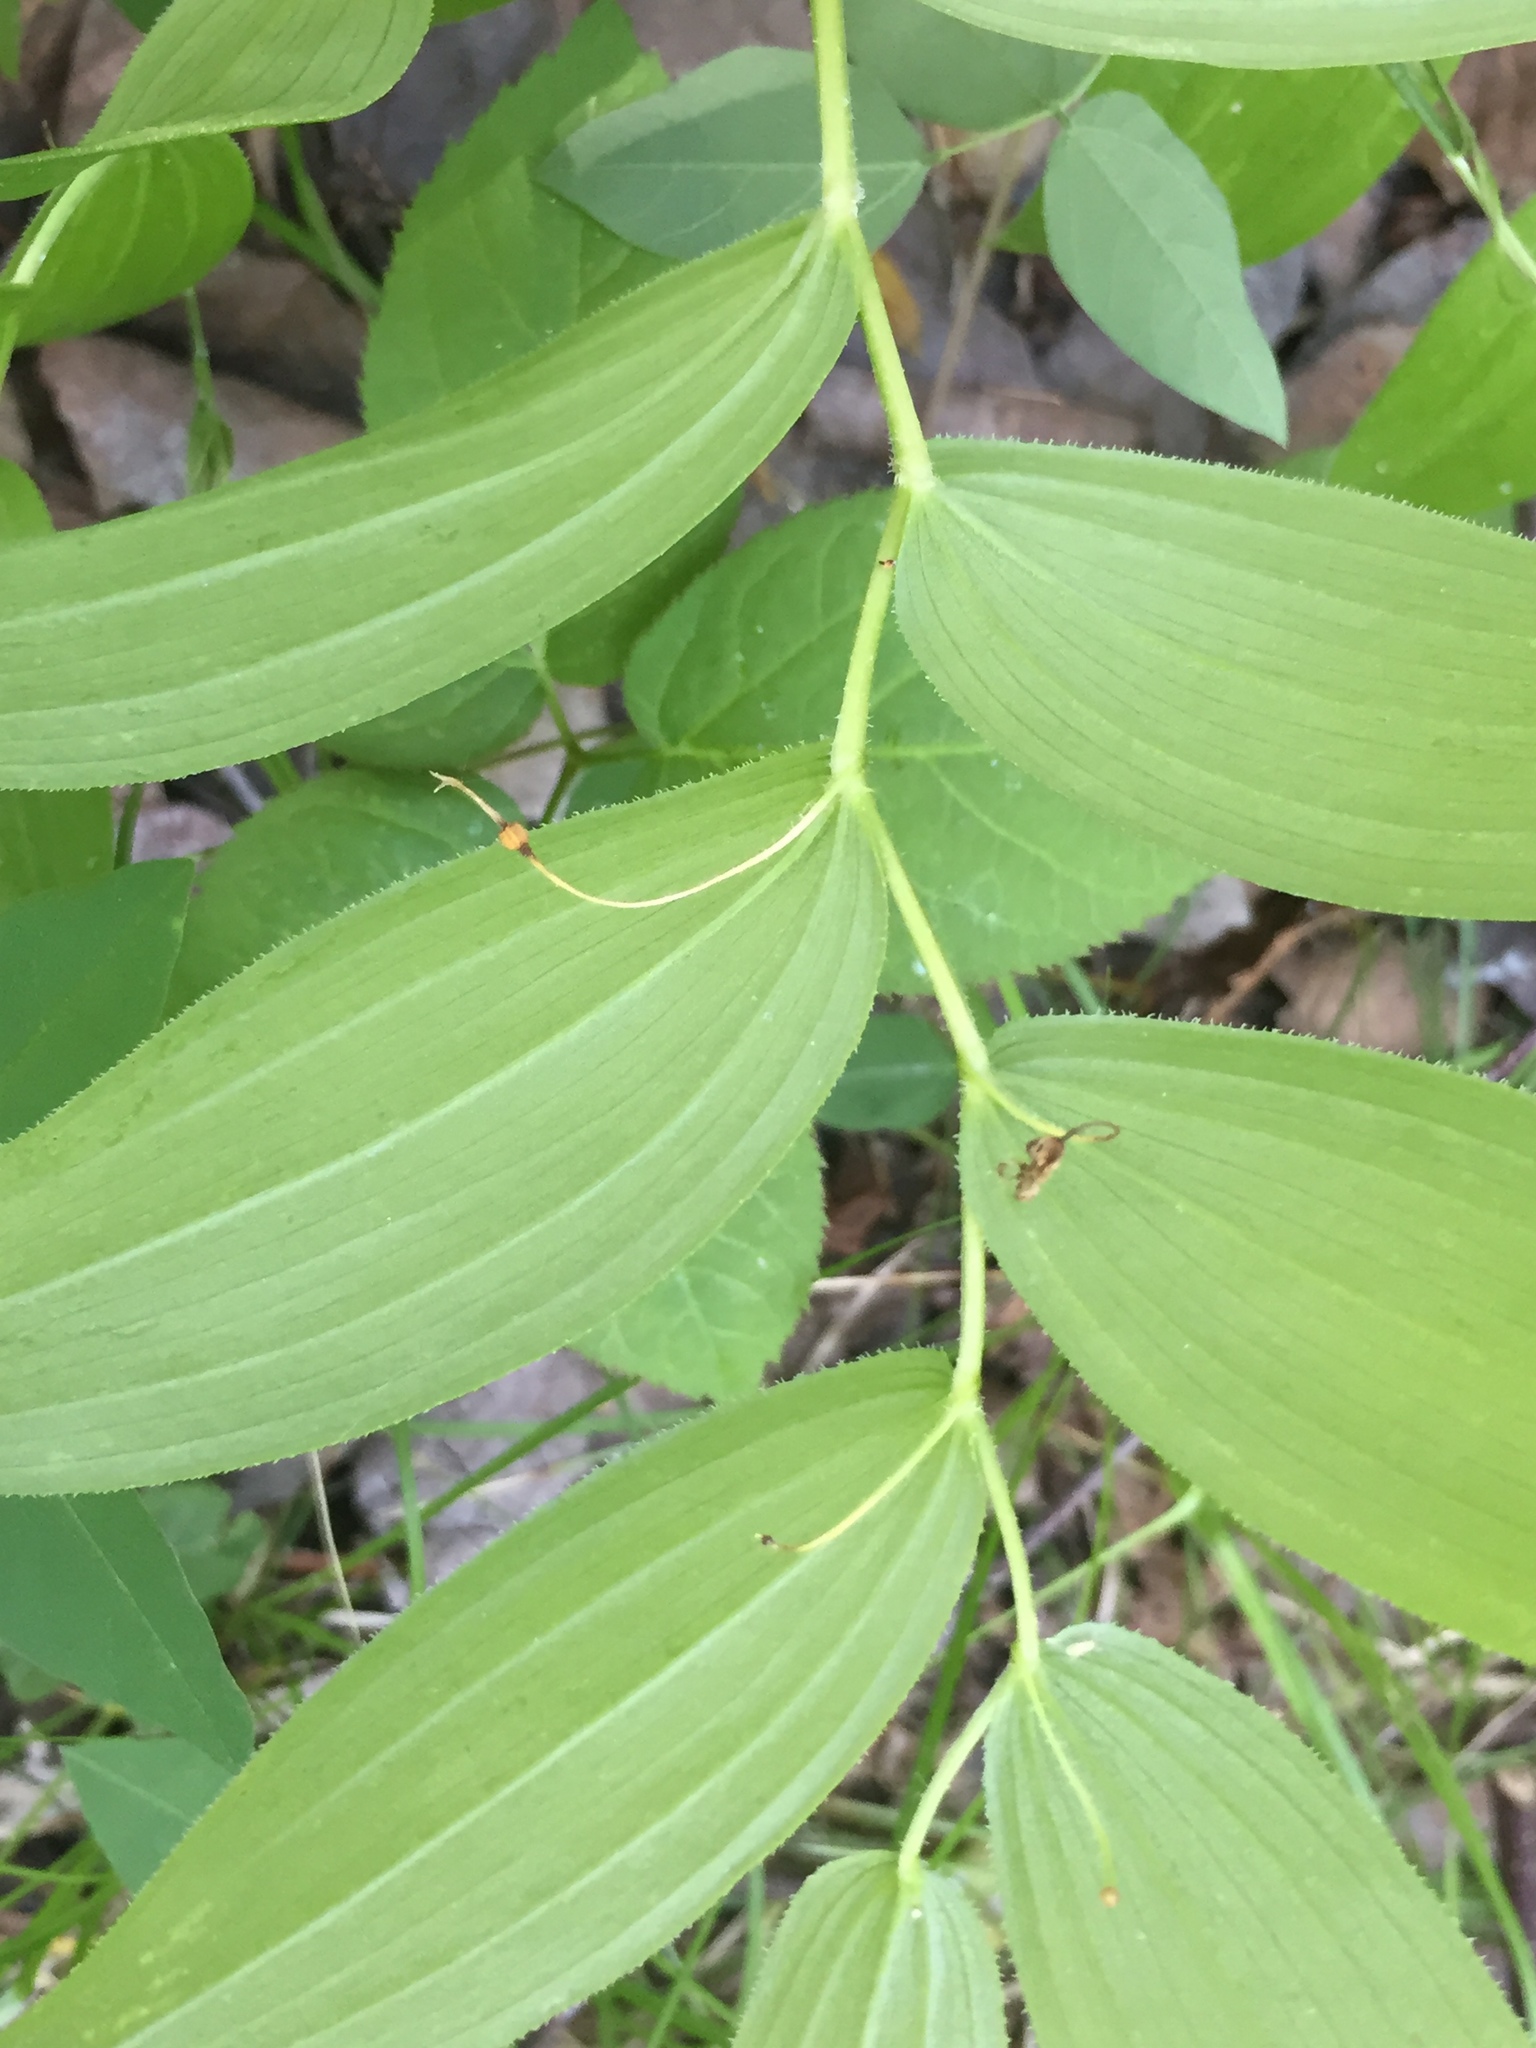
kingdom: Plantae
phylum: Tracheophyta
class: Liliopsida
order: Liliales
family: Liliaceae
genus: Streptopus
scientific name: Streptopus lanceolatus
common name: Rose mandarin
